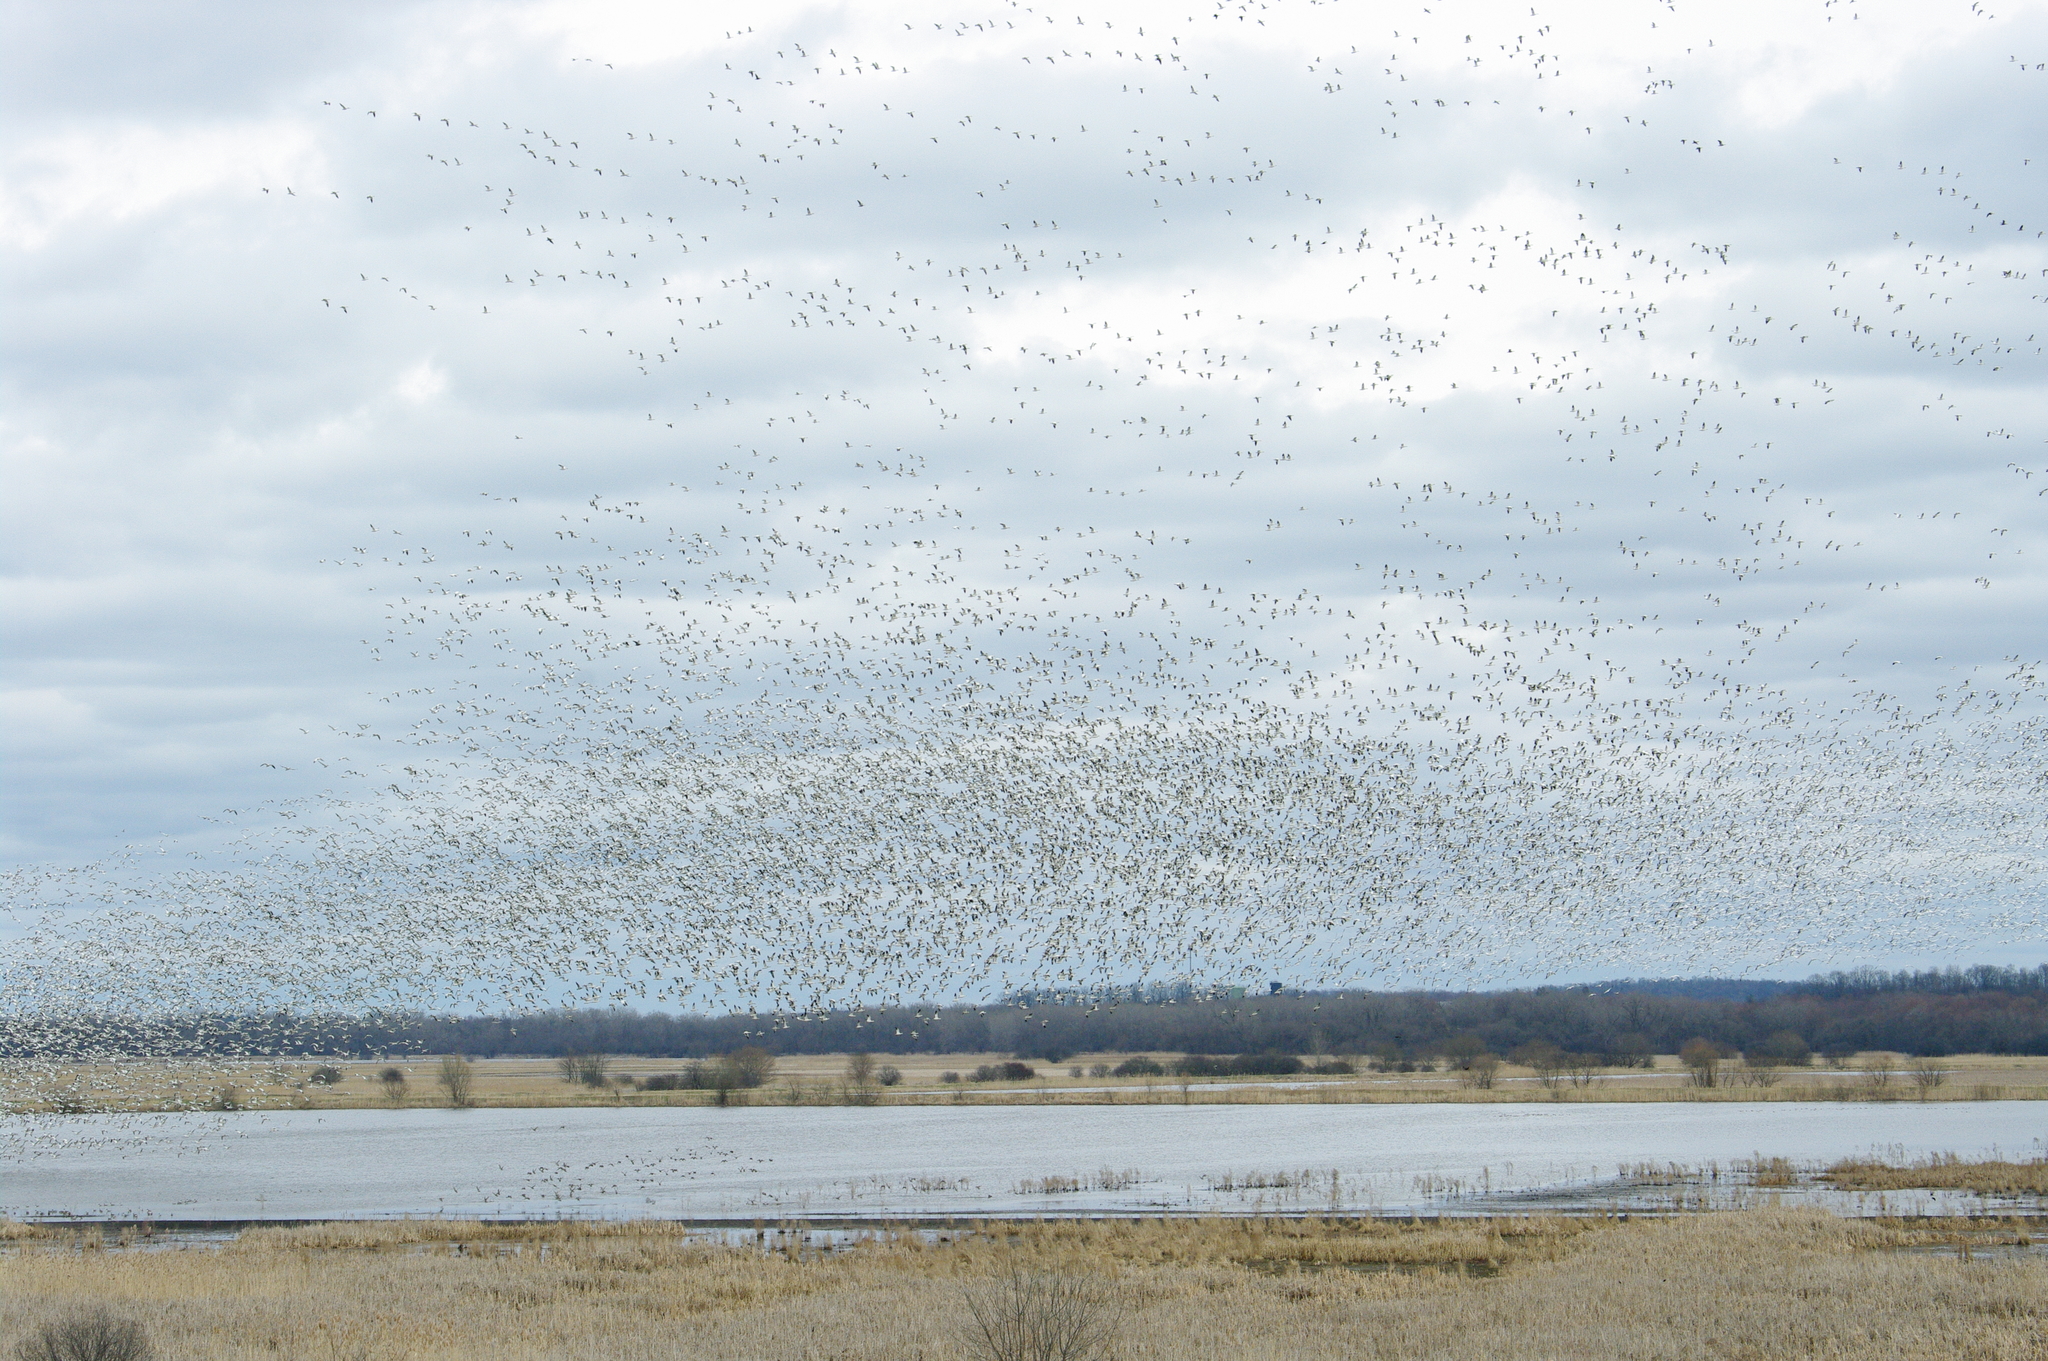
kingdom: Animalia
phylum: Chordata
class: Aves
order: Anseriformes
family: Anatidae
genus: Anser
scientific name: Anser caerulescens
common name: Snow goose
